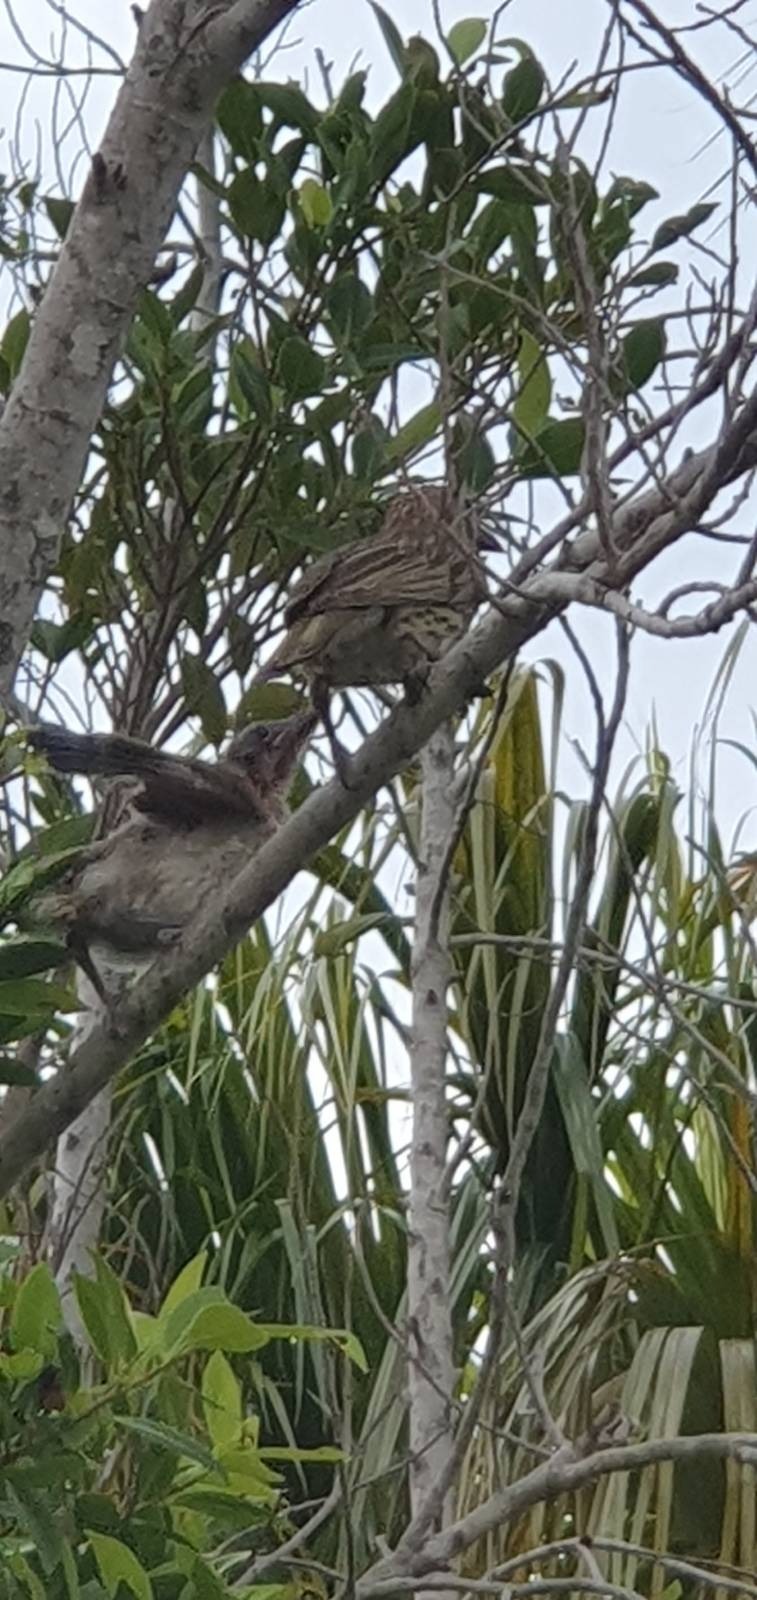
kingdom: Animalia
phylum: Chordata
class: Aves
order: Passeriformes
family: Oriolidae
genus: Sphecotheres
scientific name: Sphecotheres vieilloti
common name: Australasian figbird
